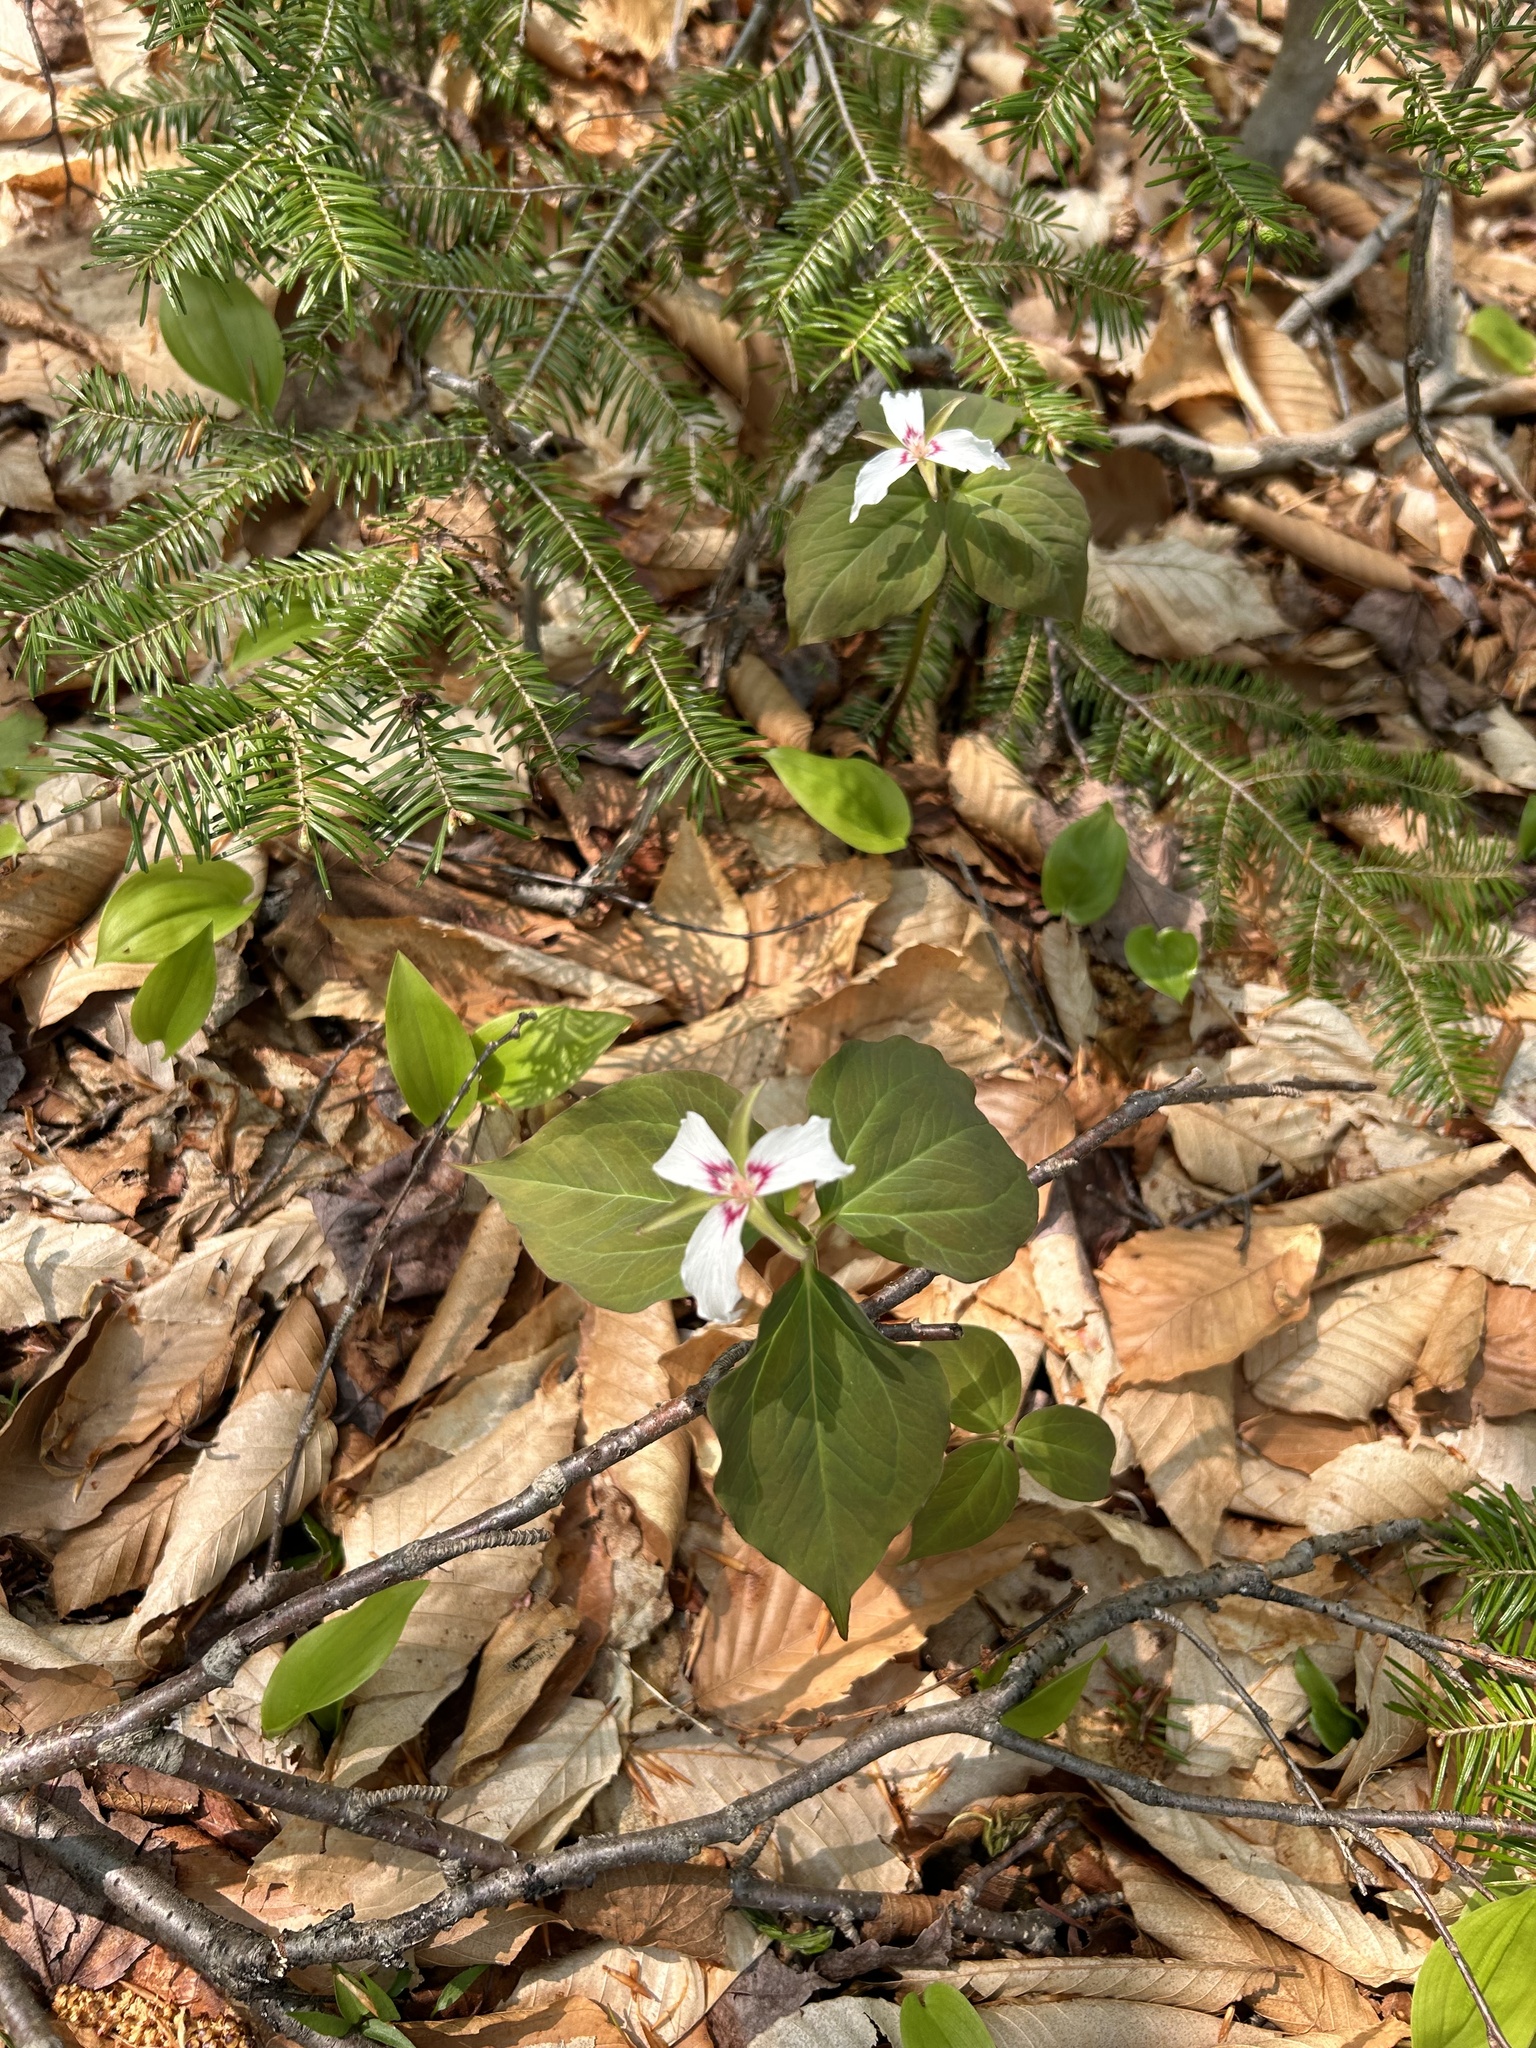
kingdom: Plantae
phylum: Tracheophyta
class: Liliopsida
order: Liliales
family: Melanthiaceae
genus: Trillium
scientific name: Trillium undulatum
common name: Paint trillium
